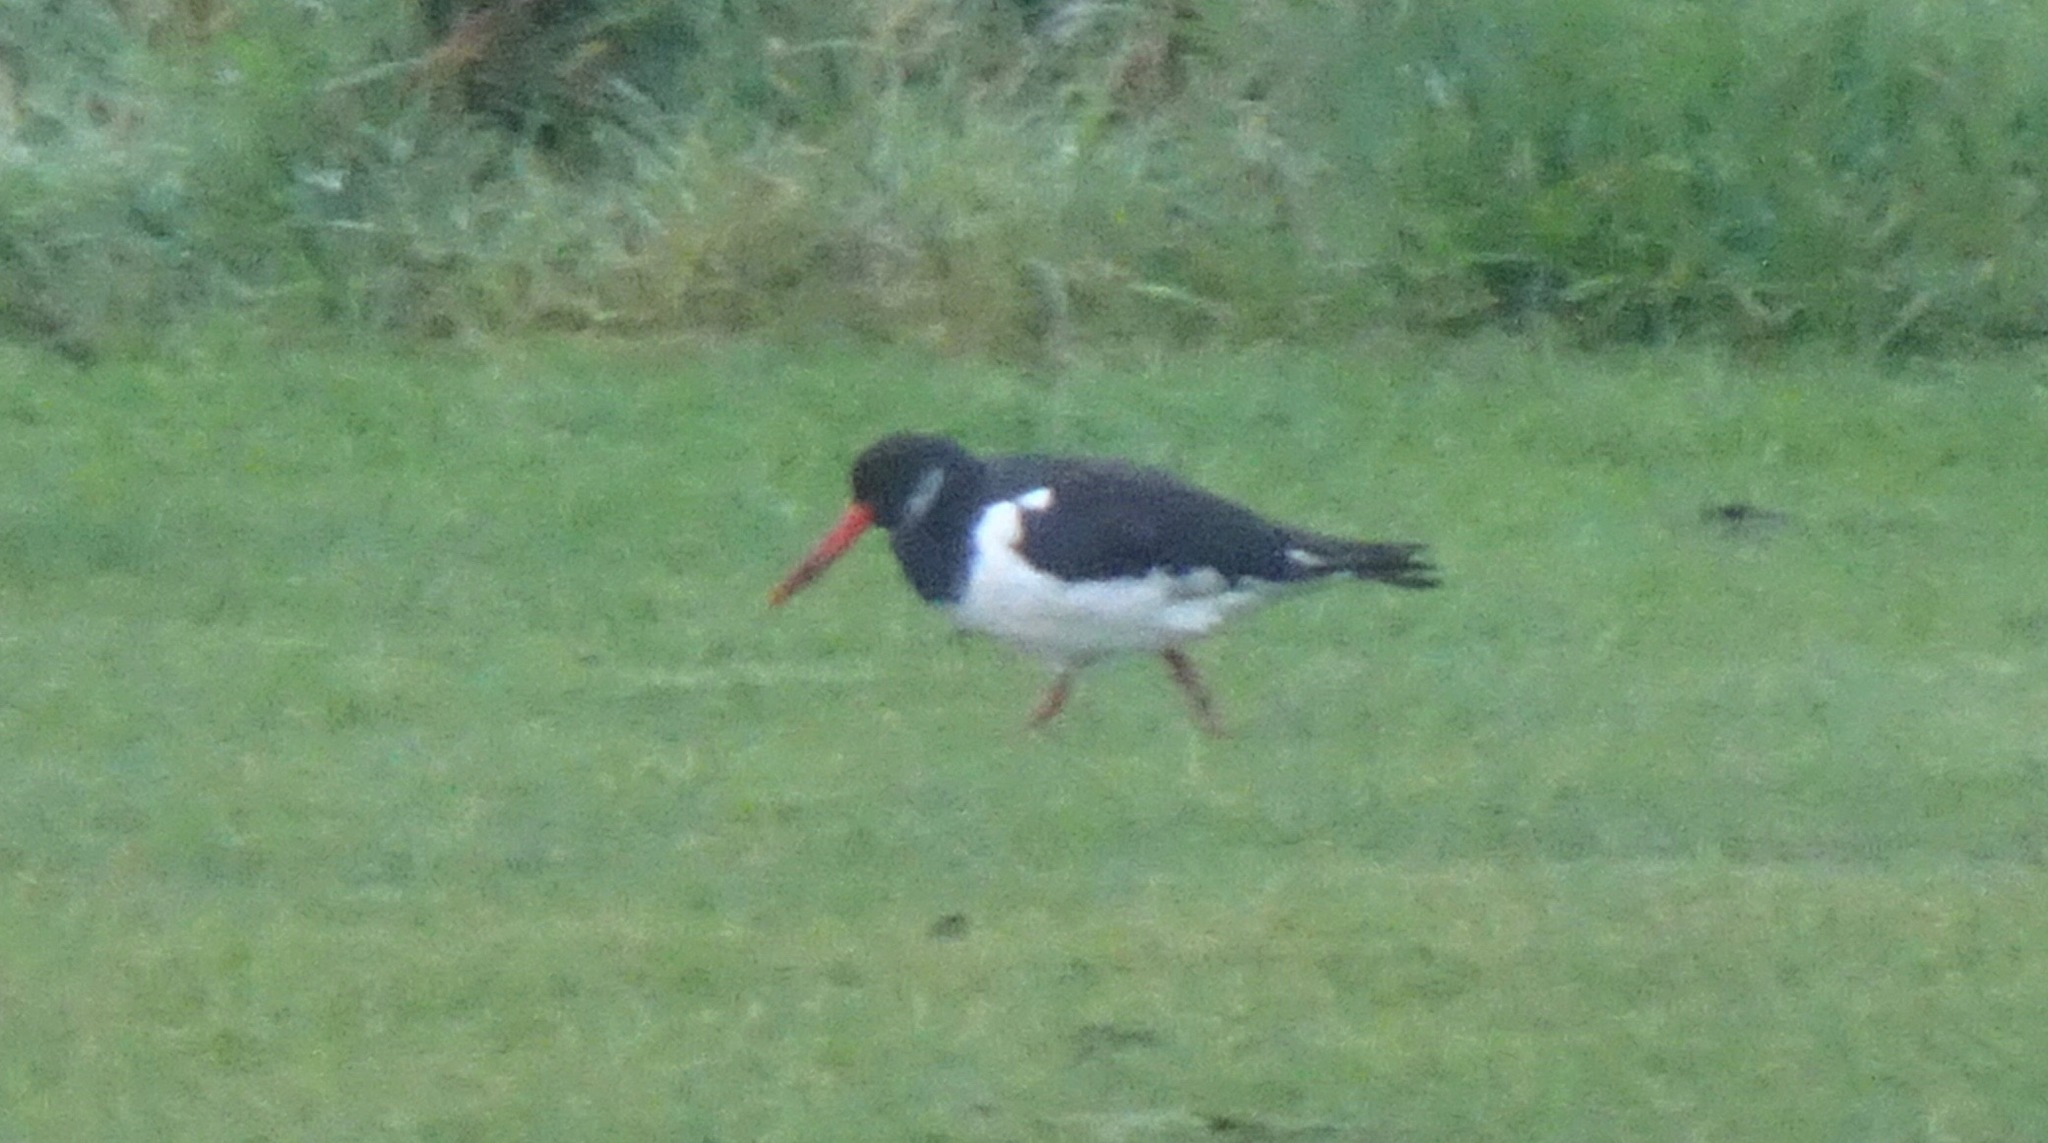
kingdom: Animalia
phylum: Chordata
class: Aves
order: Charadriiformes
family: Haematopodidae
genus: Haematopus
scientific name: Haematopus ostralegus
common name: Eurasian oystercatcher
